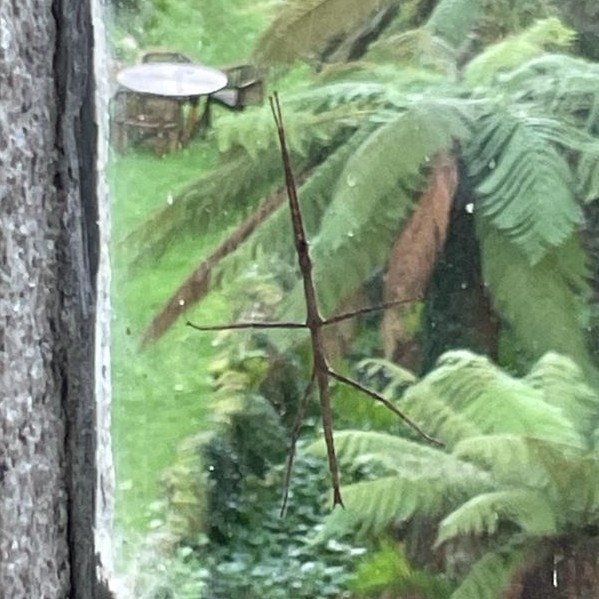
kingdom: Animalia
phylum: Arthropoda
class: Insecta
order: Phasmida
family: Lonchodidae
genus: Carausius
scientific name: Carausius morosus
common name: Indian stick insect
